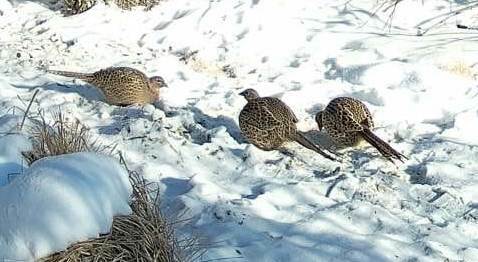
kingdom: Animalia
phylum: Chordata
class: Aves
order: Galliformes
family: Phasianidae
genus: Phasianus
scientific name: Phasianus colchicus
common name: Common pheasant
